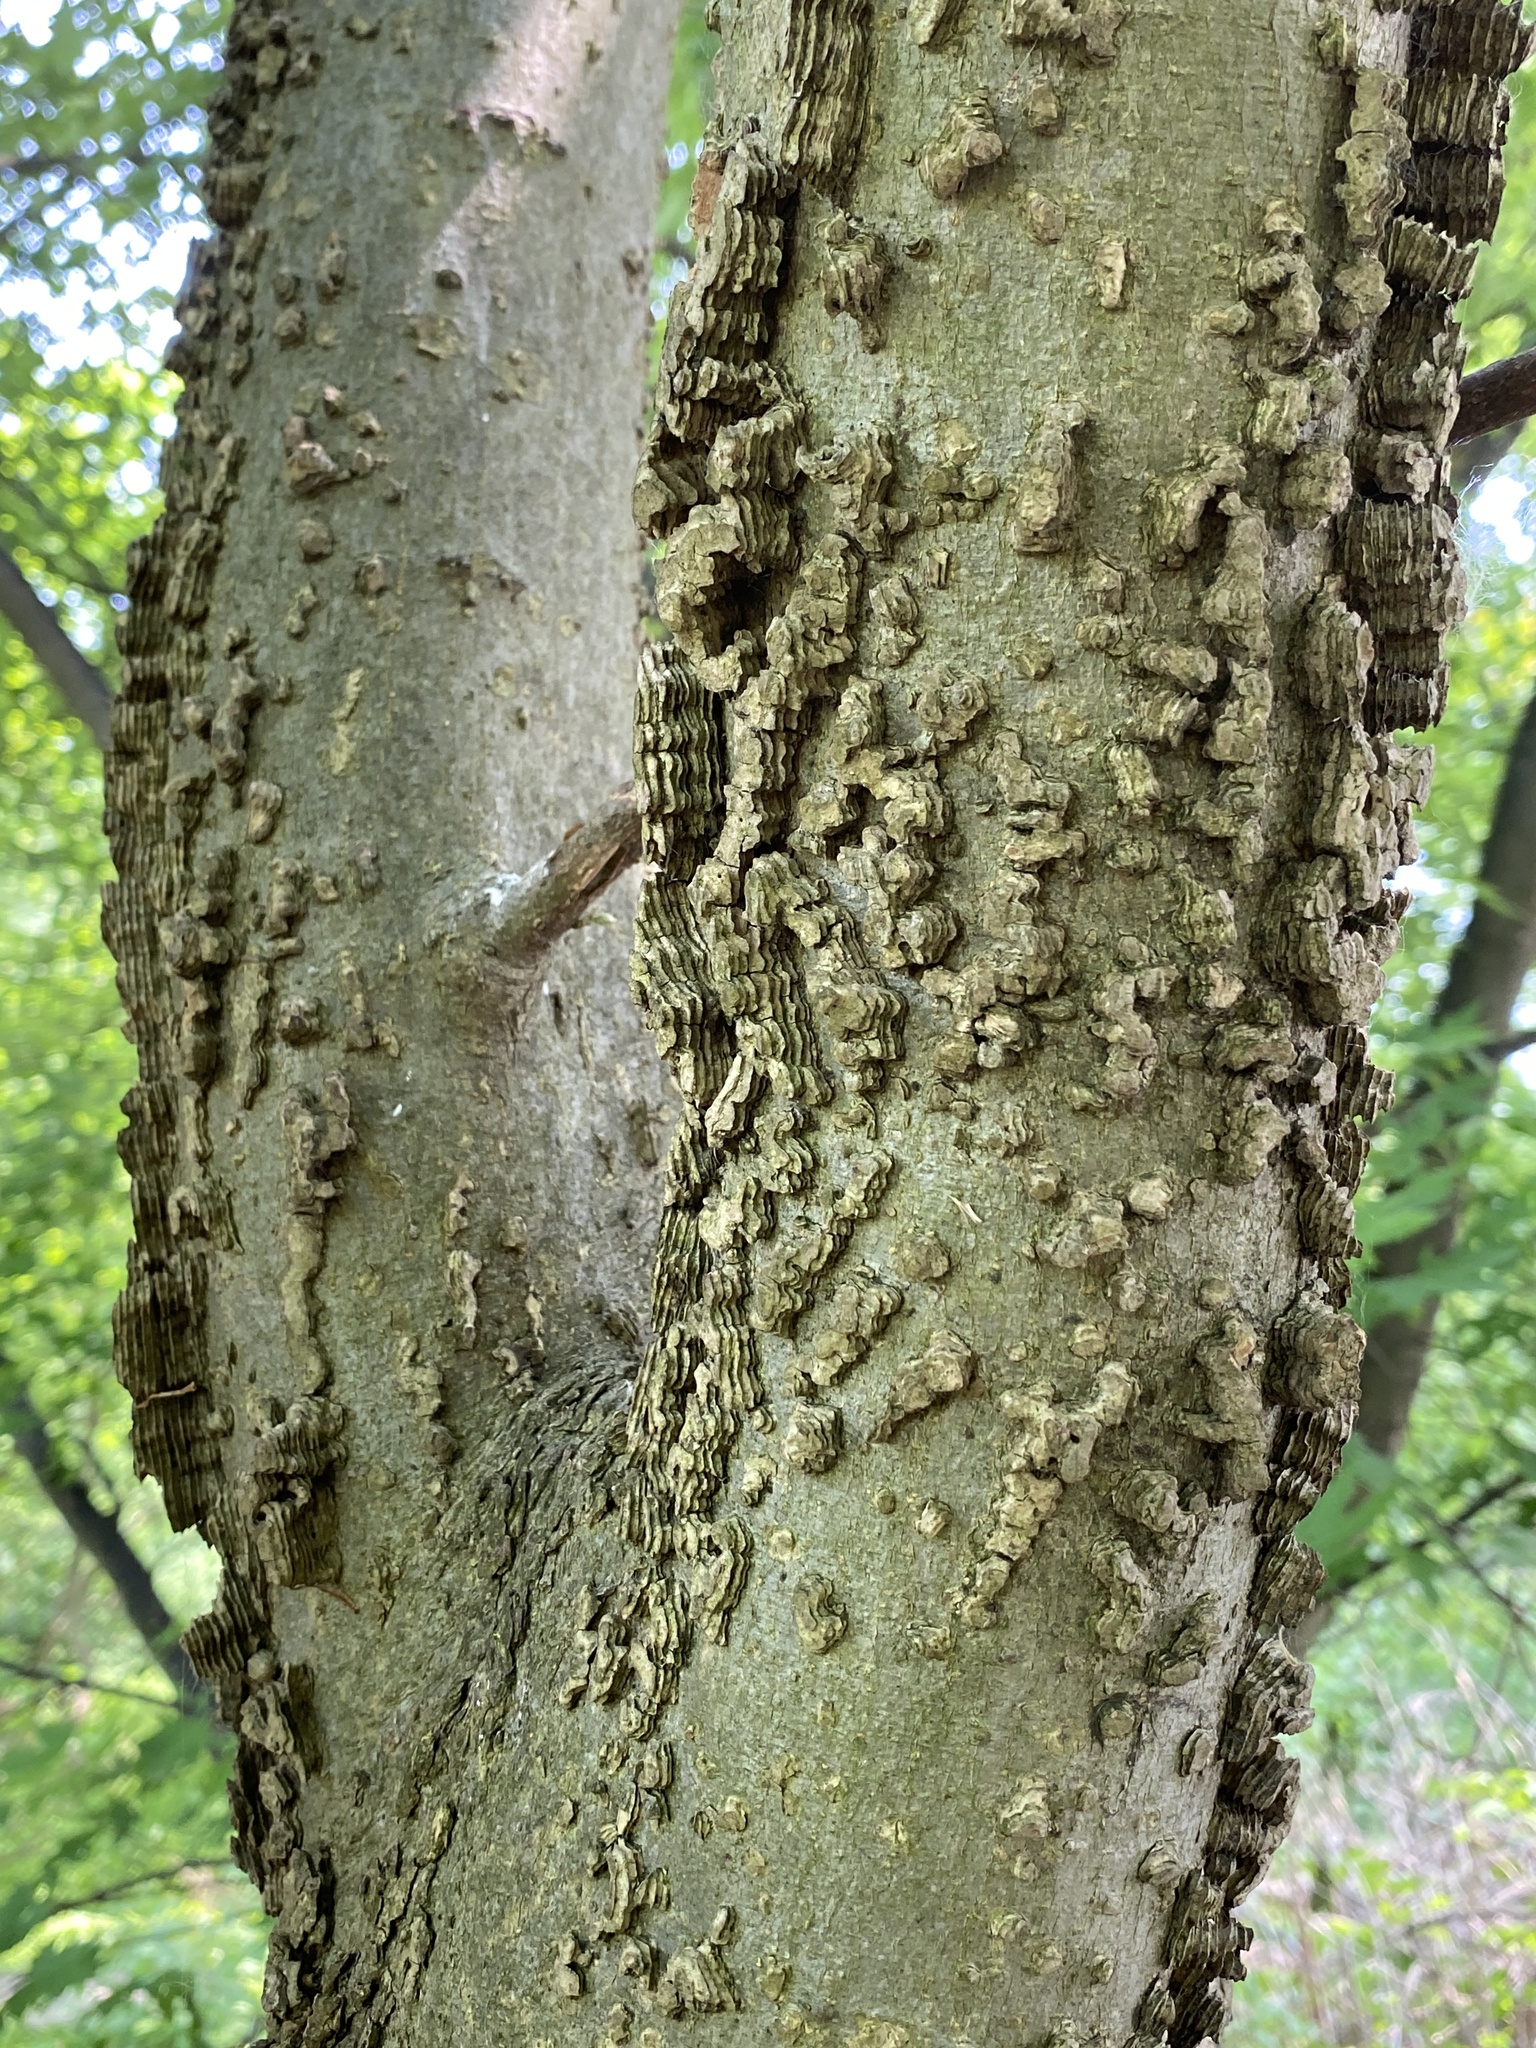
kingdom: Plantae
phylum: Tracheophyta
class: Magnoliopsida
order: Rosales
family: Cannabaceae
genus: Celtis
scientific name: Celtis occidentalis
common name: Common hackberry
